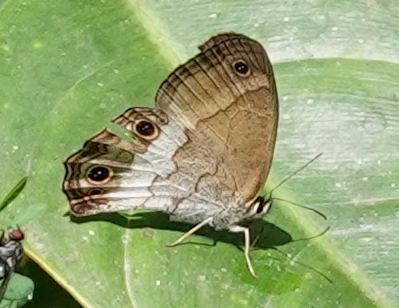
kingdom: Animalia
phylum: Arthropoda
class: Insecta
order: Lepidoptera
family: Nymphalidae
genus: Graphita
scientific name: Graphita griphe
